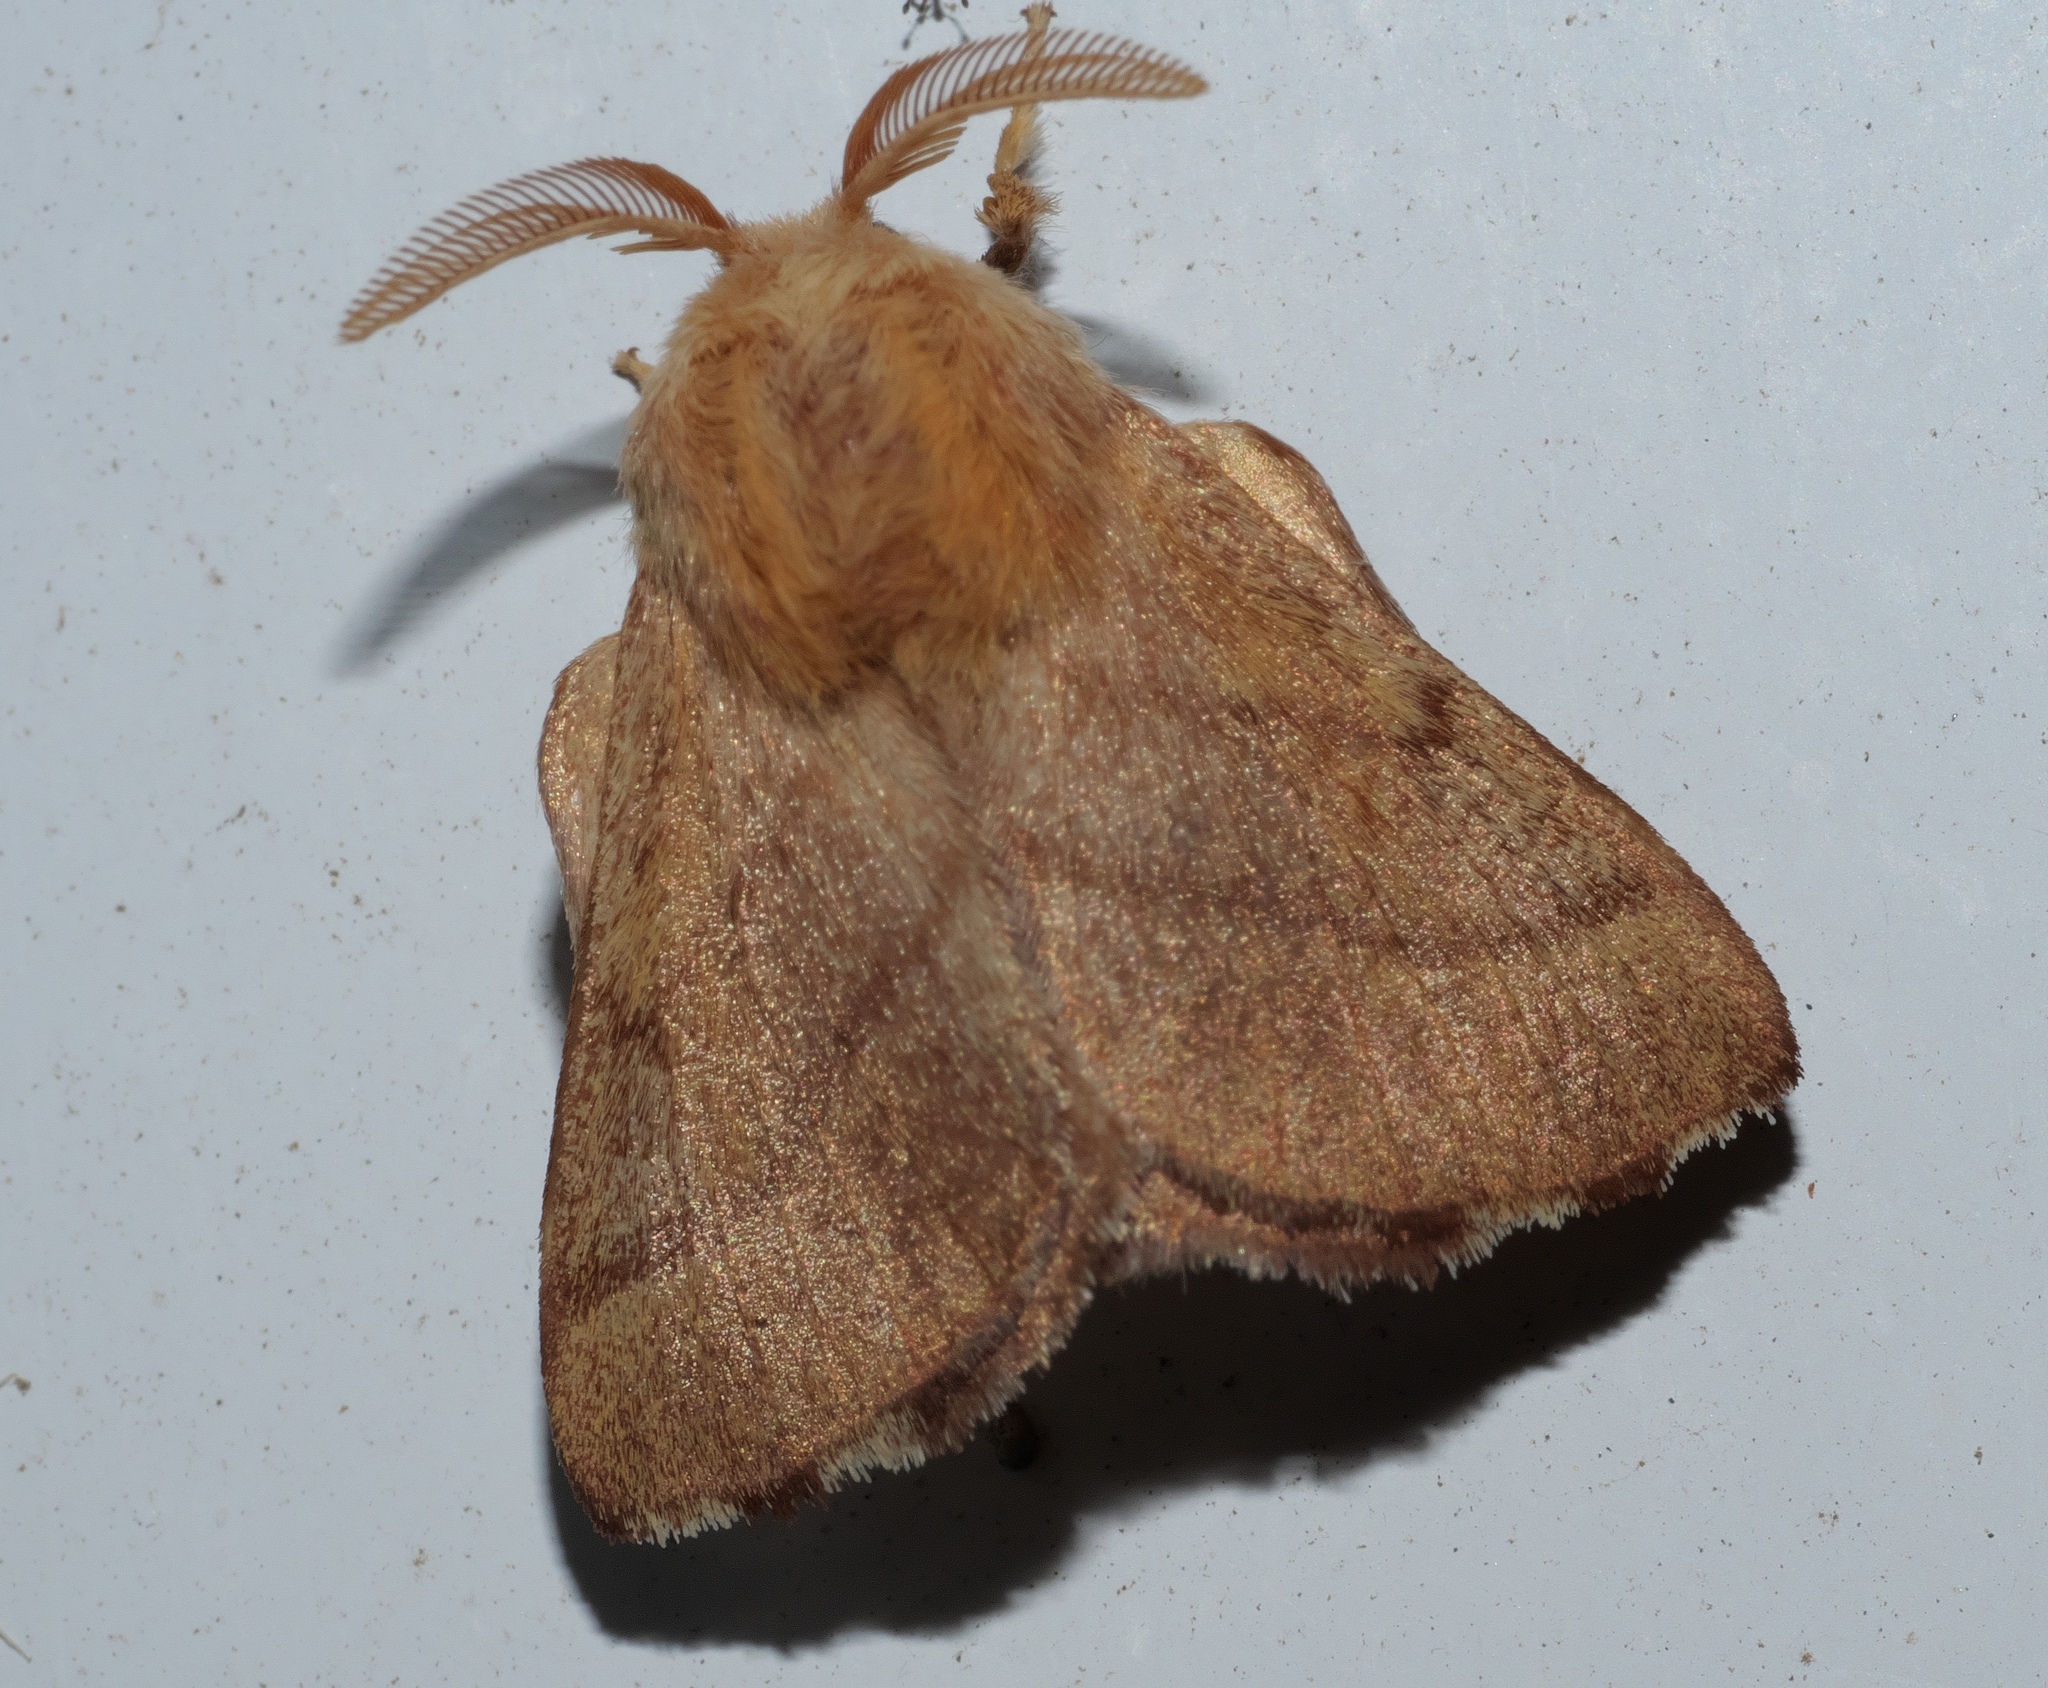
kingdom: Animalia
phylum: Arthropoda
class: Insecta
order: Lepidoptera
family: Lasiocampidae
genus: Malacosoma
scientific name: Malacosoma disstria
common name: Forest tent caterpillar
